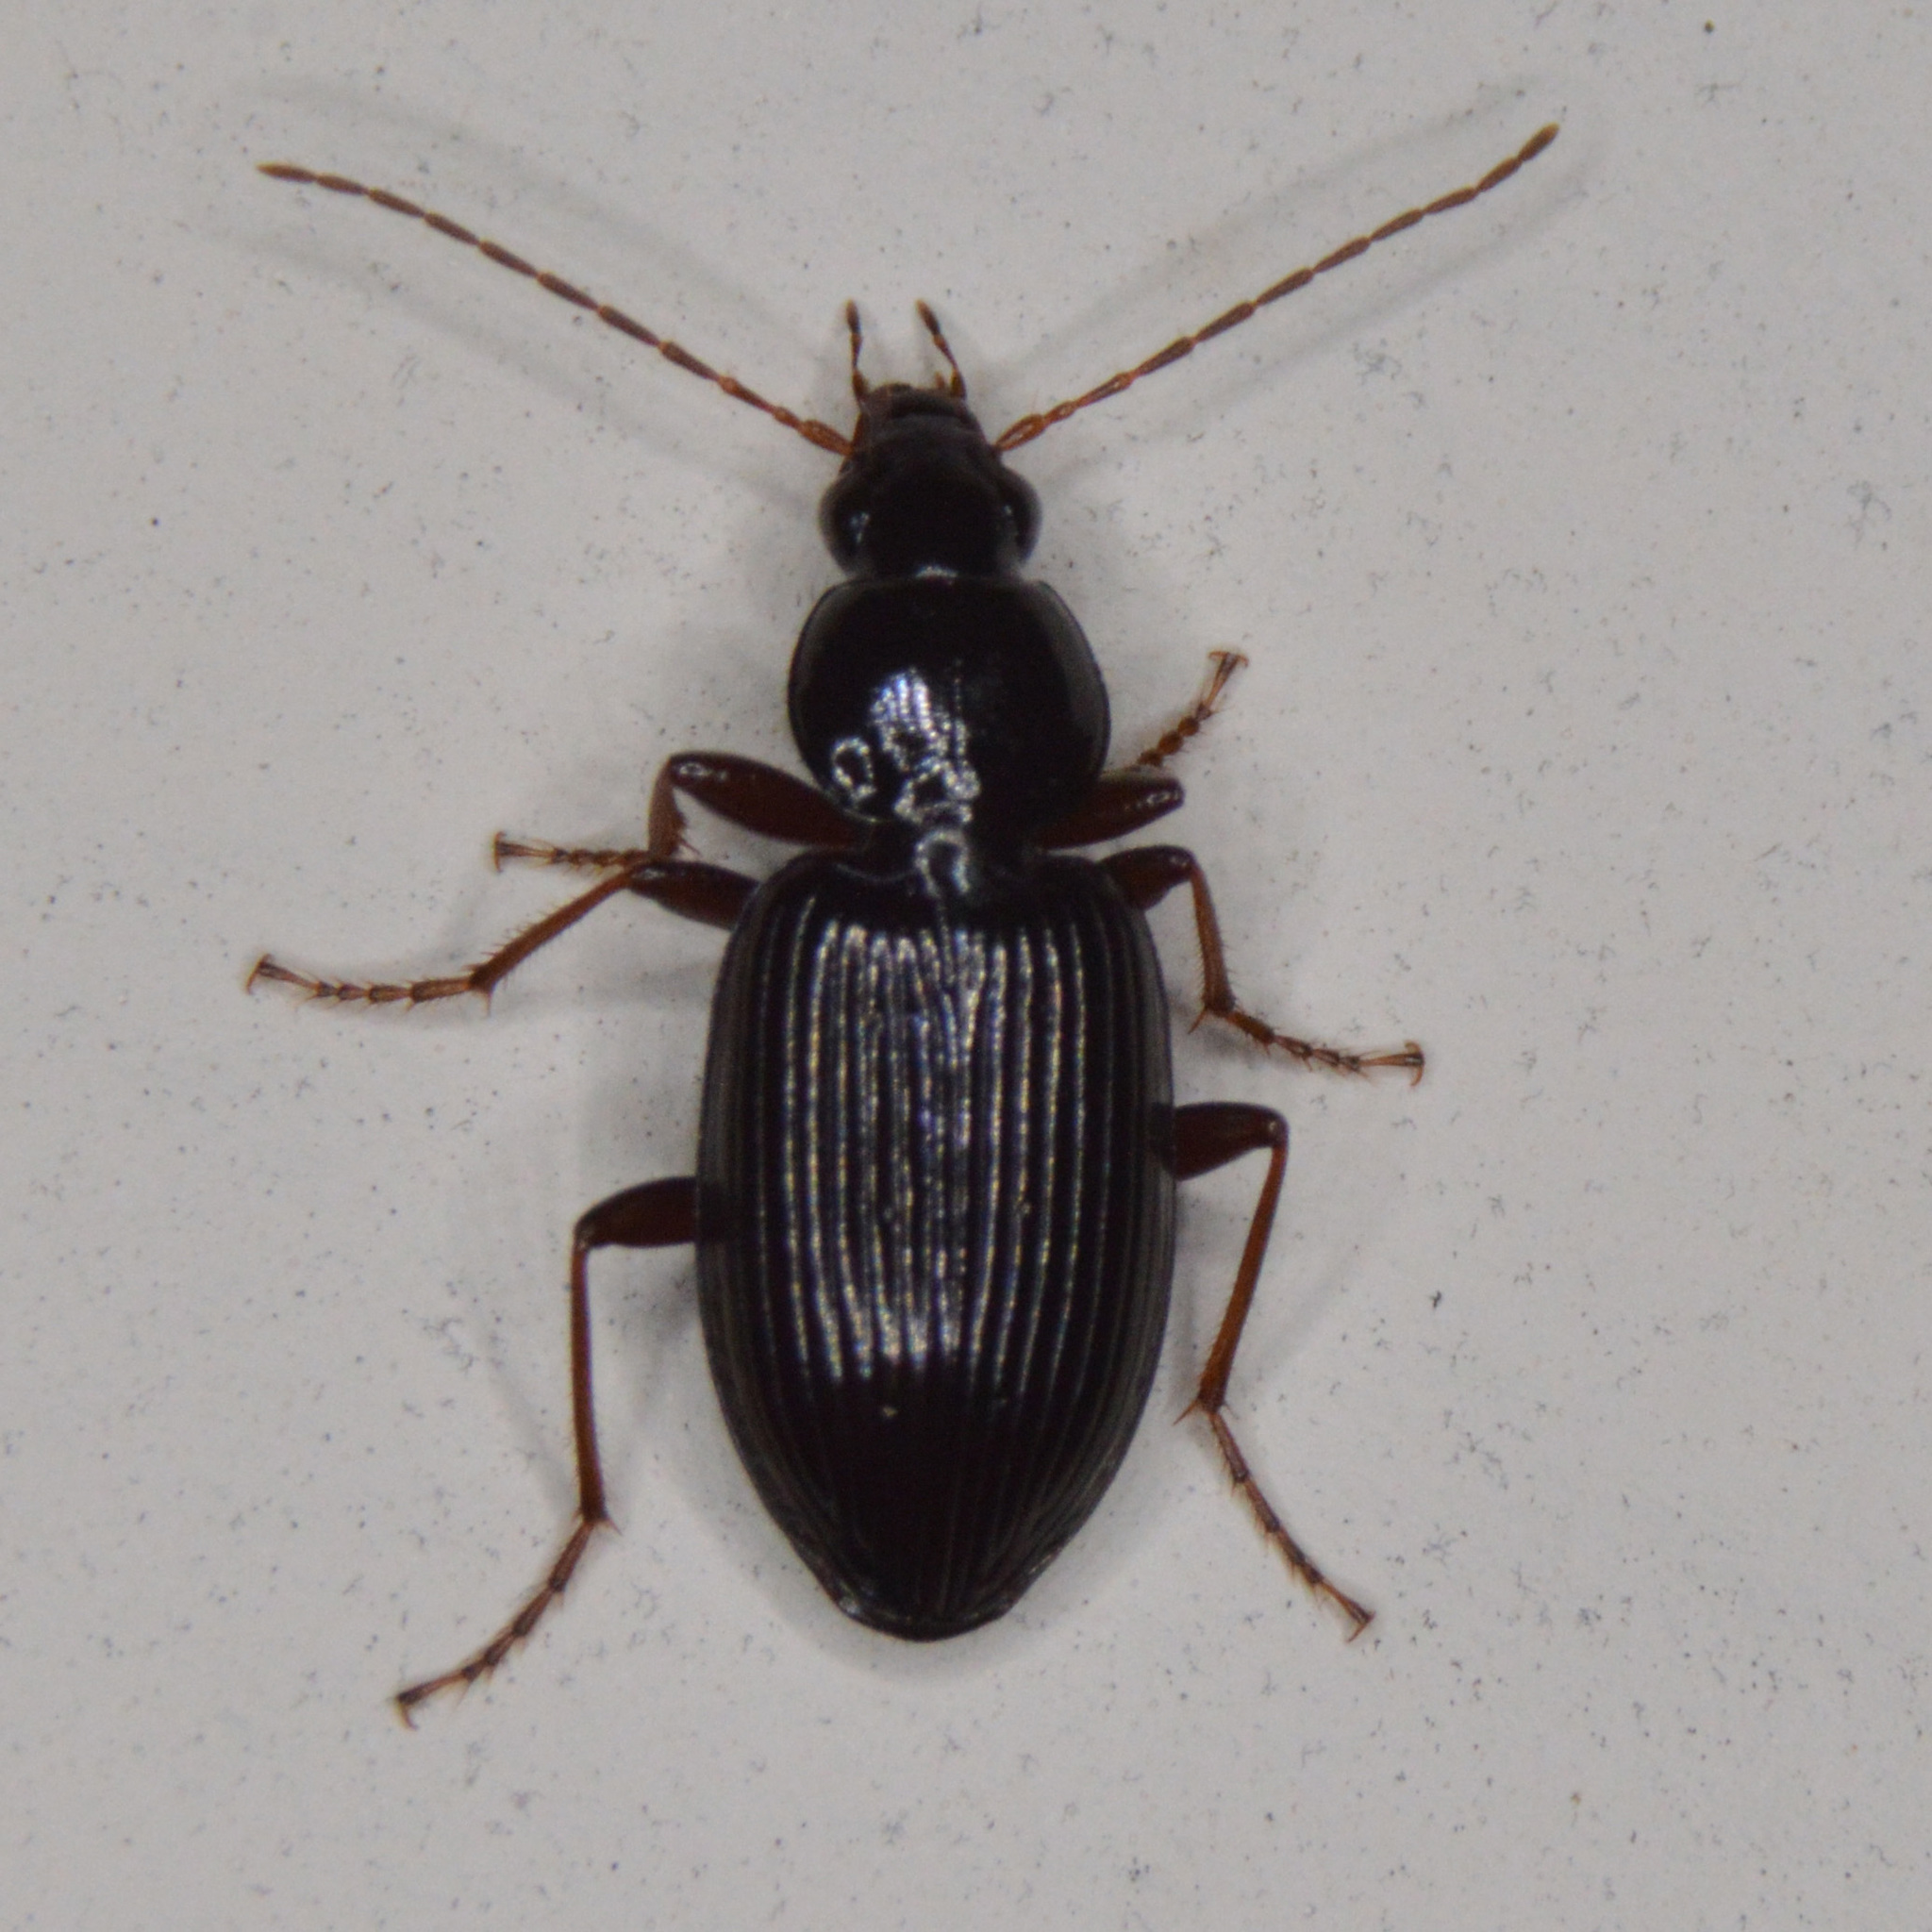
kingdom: Animalia
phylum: Arthropoda
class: Insecta
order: Coleoptera
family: Carabidae
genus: Agonum
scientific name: Agonum punctiforme
